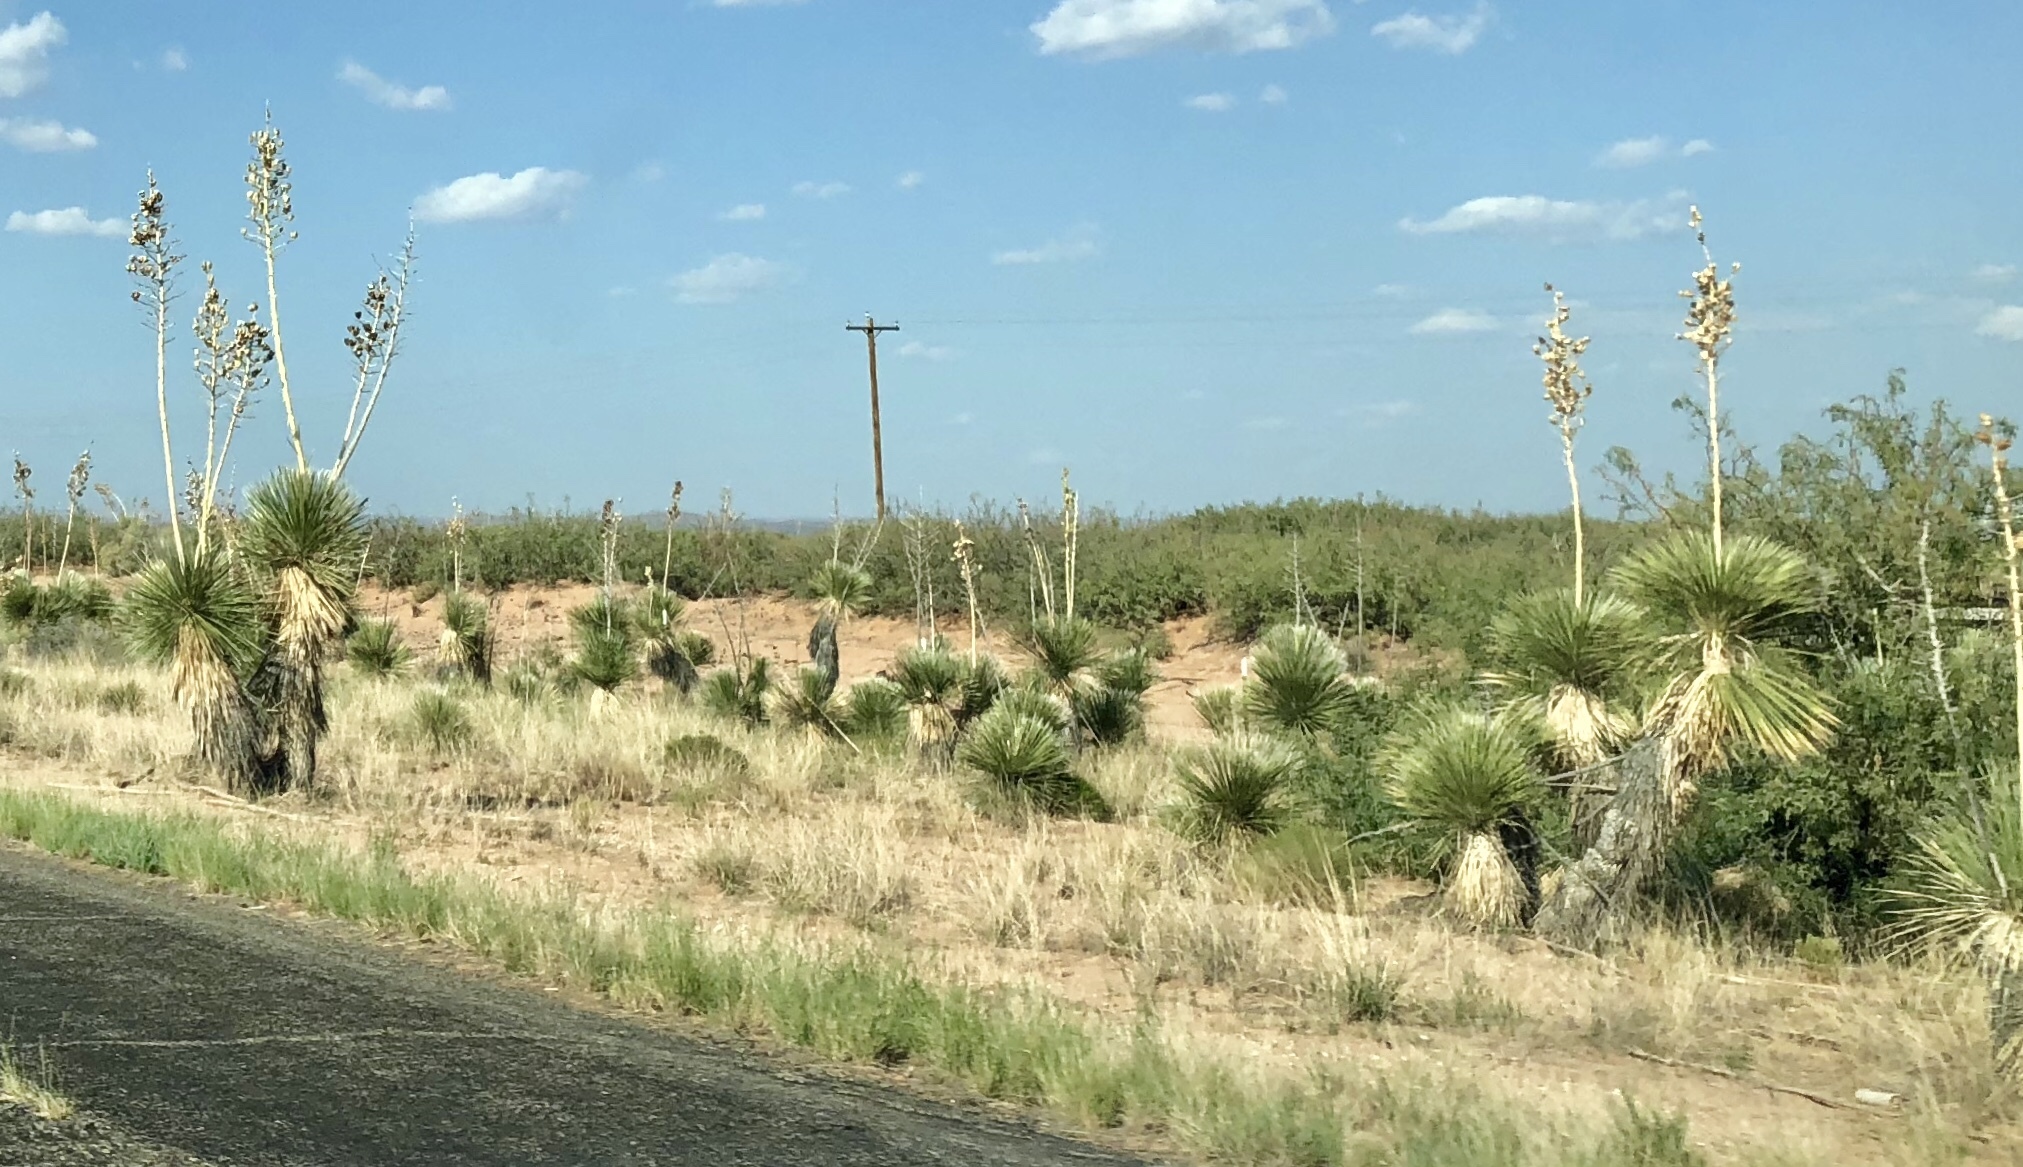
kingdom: Plantae
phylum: Tracheophyta
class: Liliopsida
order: Asparagales
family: Asparagaceae
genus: Yucca
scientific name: Yucca elata
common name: Palmella
